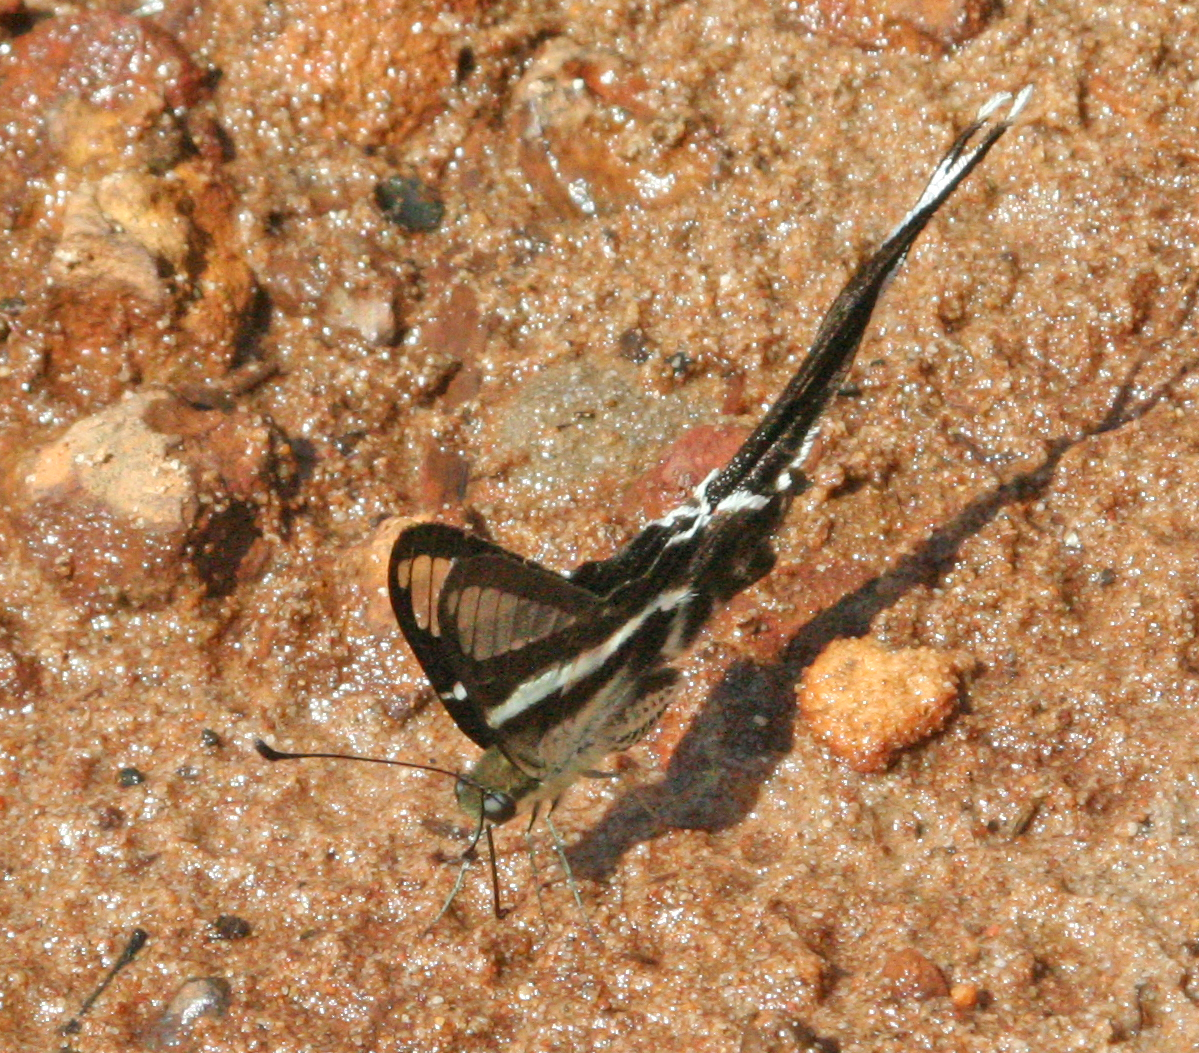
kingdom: Animalia
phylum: Arthropoda
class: Insecta
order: Lepidoptera
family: Papilionidae
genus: Lamproptera
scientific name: Lamproptera curius
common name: White dragontail
